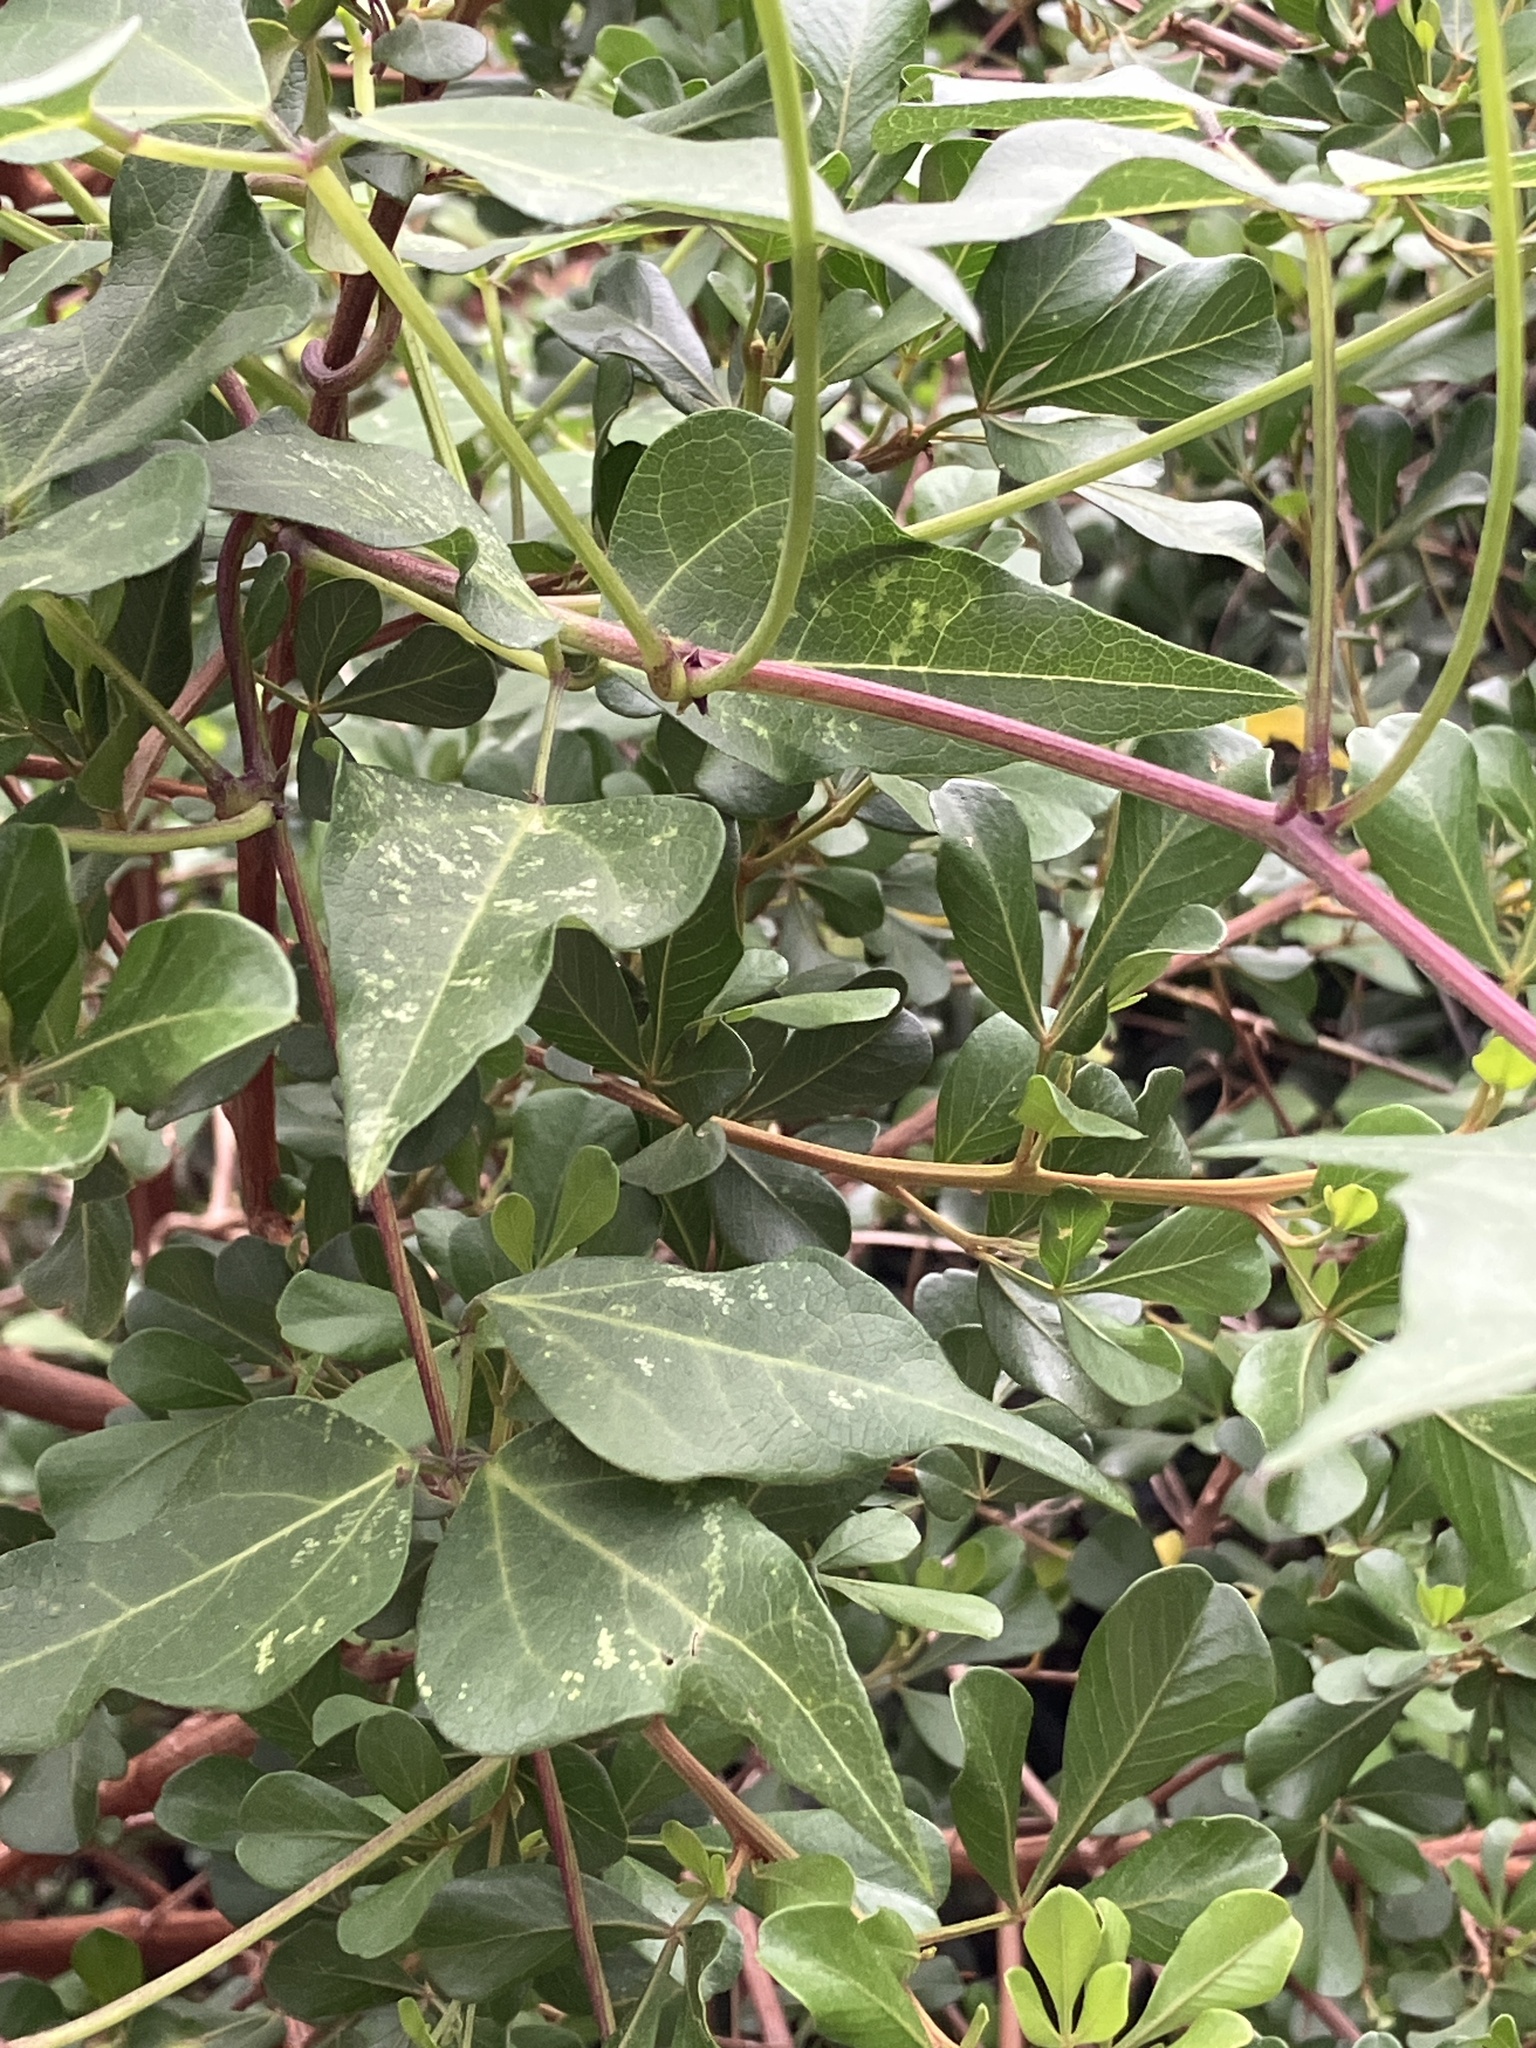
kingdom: Plantae
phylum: Tracheophyta
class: Magnoliopsida
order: Fabales
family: Fabaceae
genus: Dipogon
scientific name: Dipogon lignosus
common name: Okie bean
